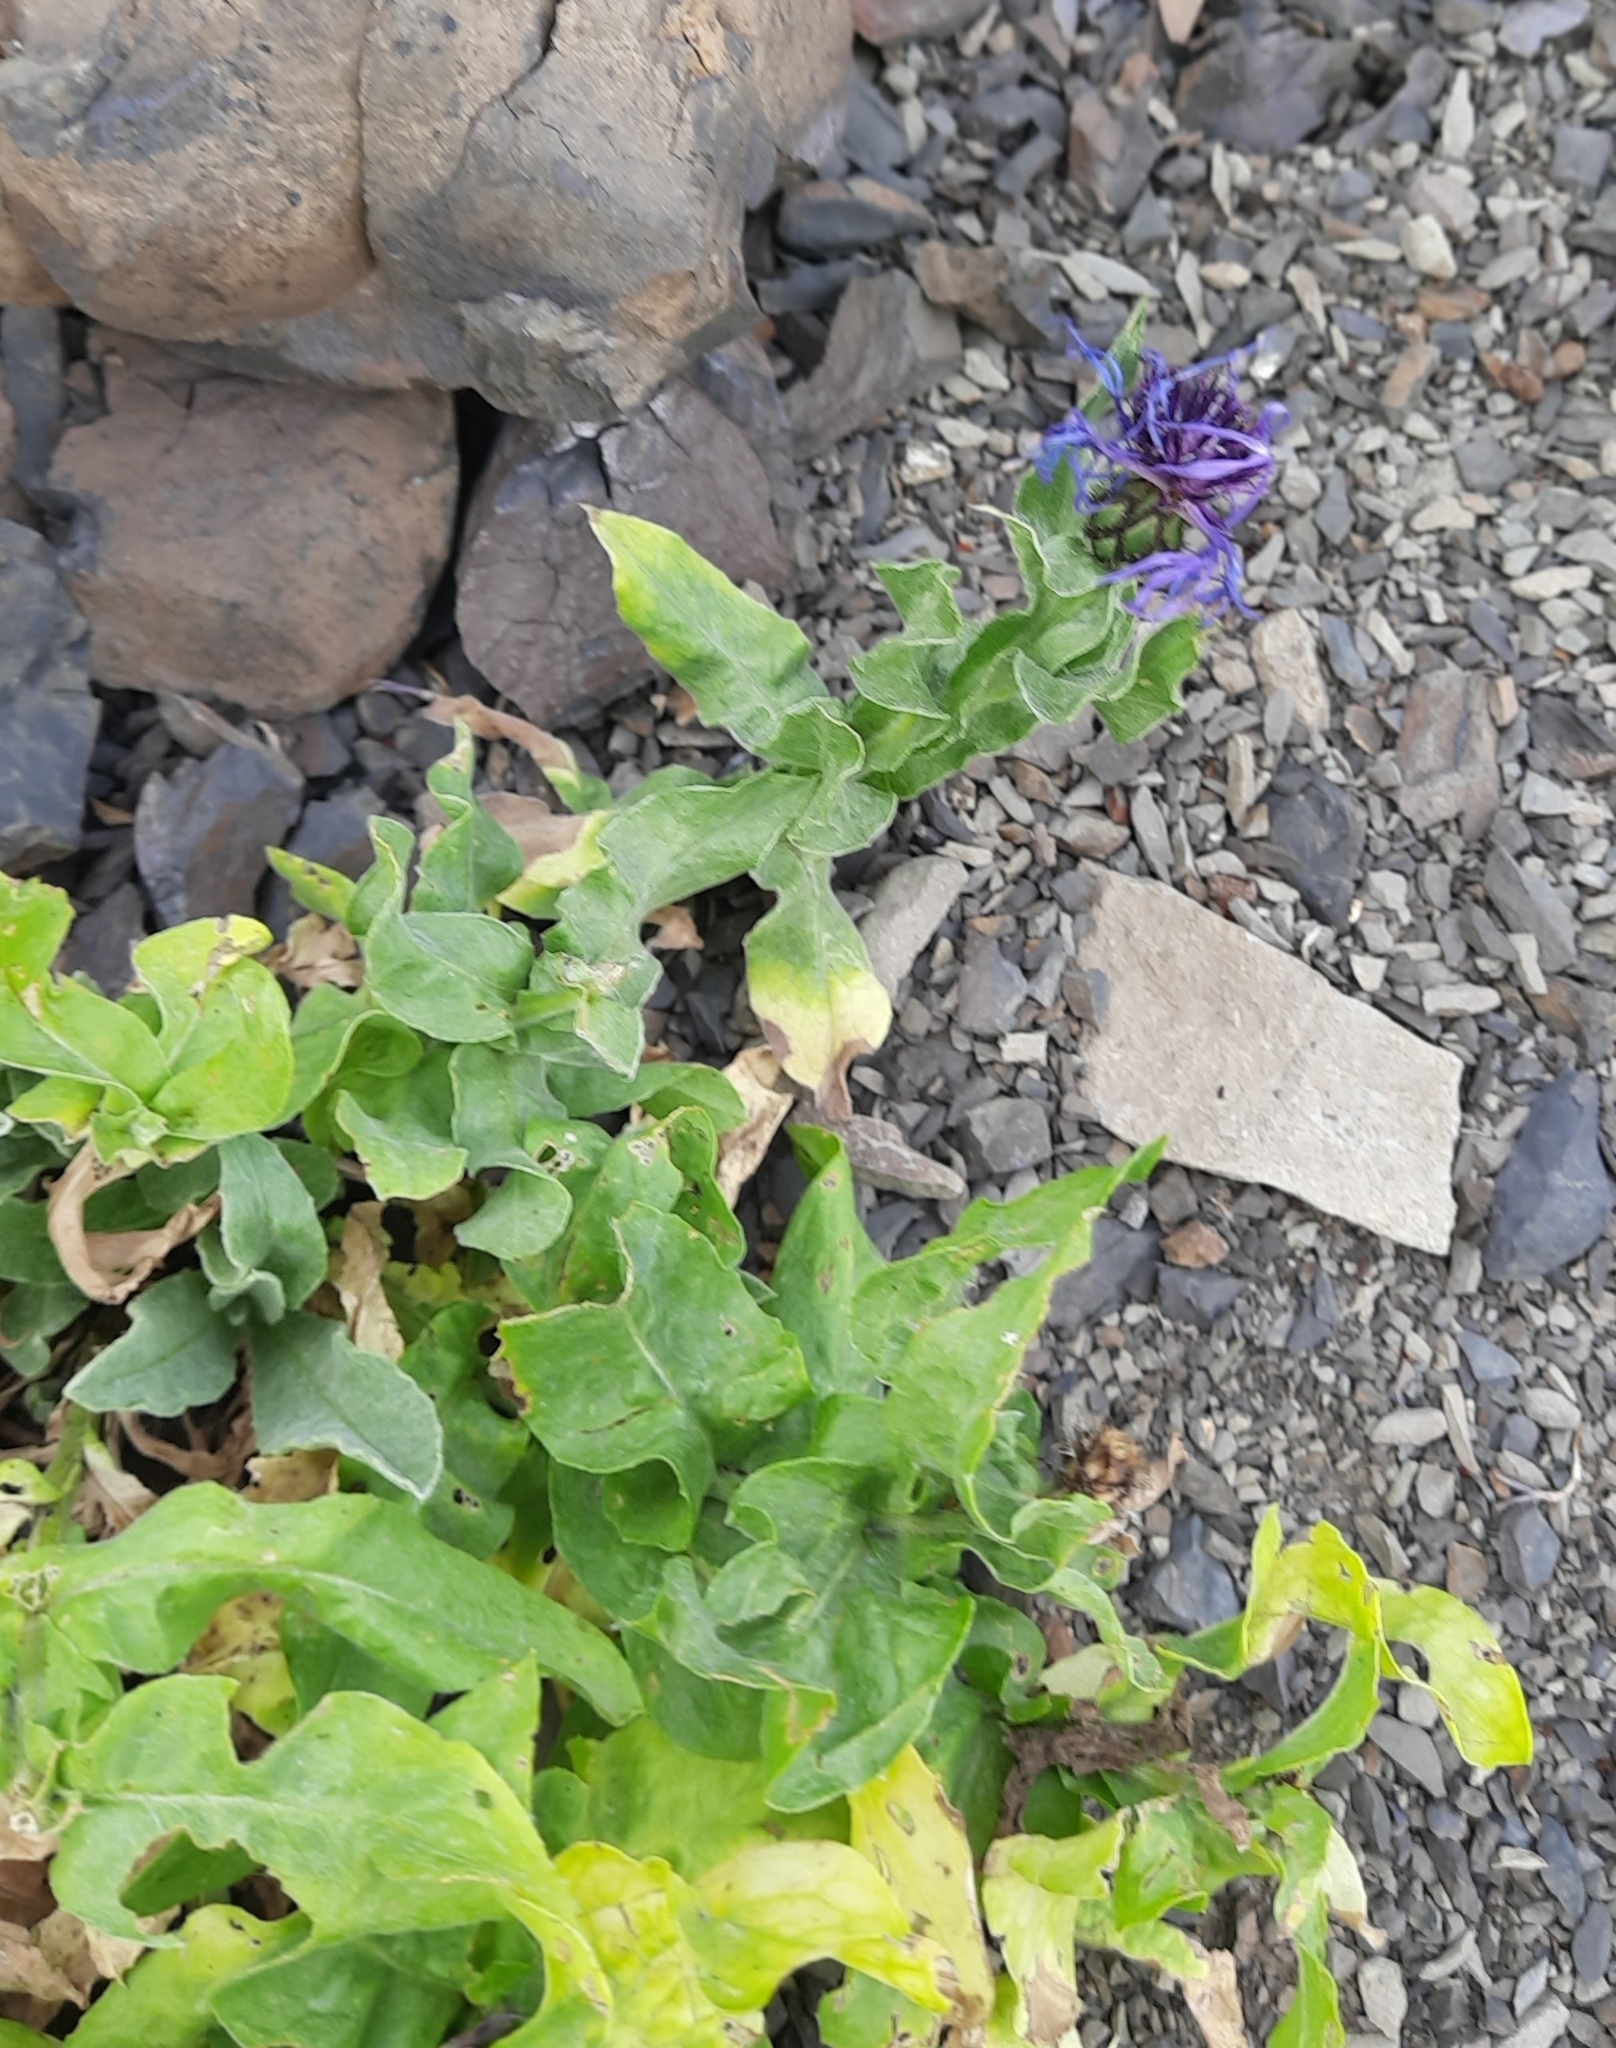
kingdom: Plantae
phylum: Tracheophyta
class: Magnoliopsida
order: Asterales
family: Asteraceae
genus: Centaurea
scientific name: Centaurea nigrofimbria
